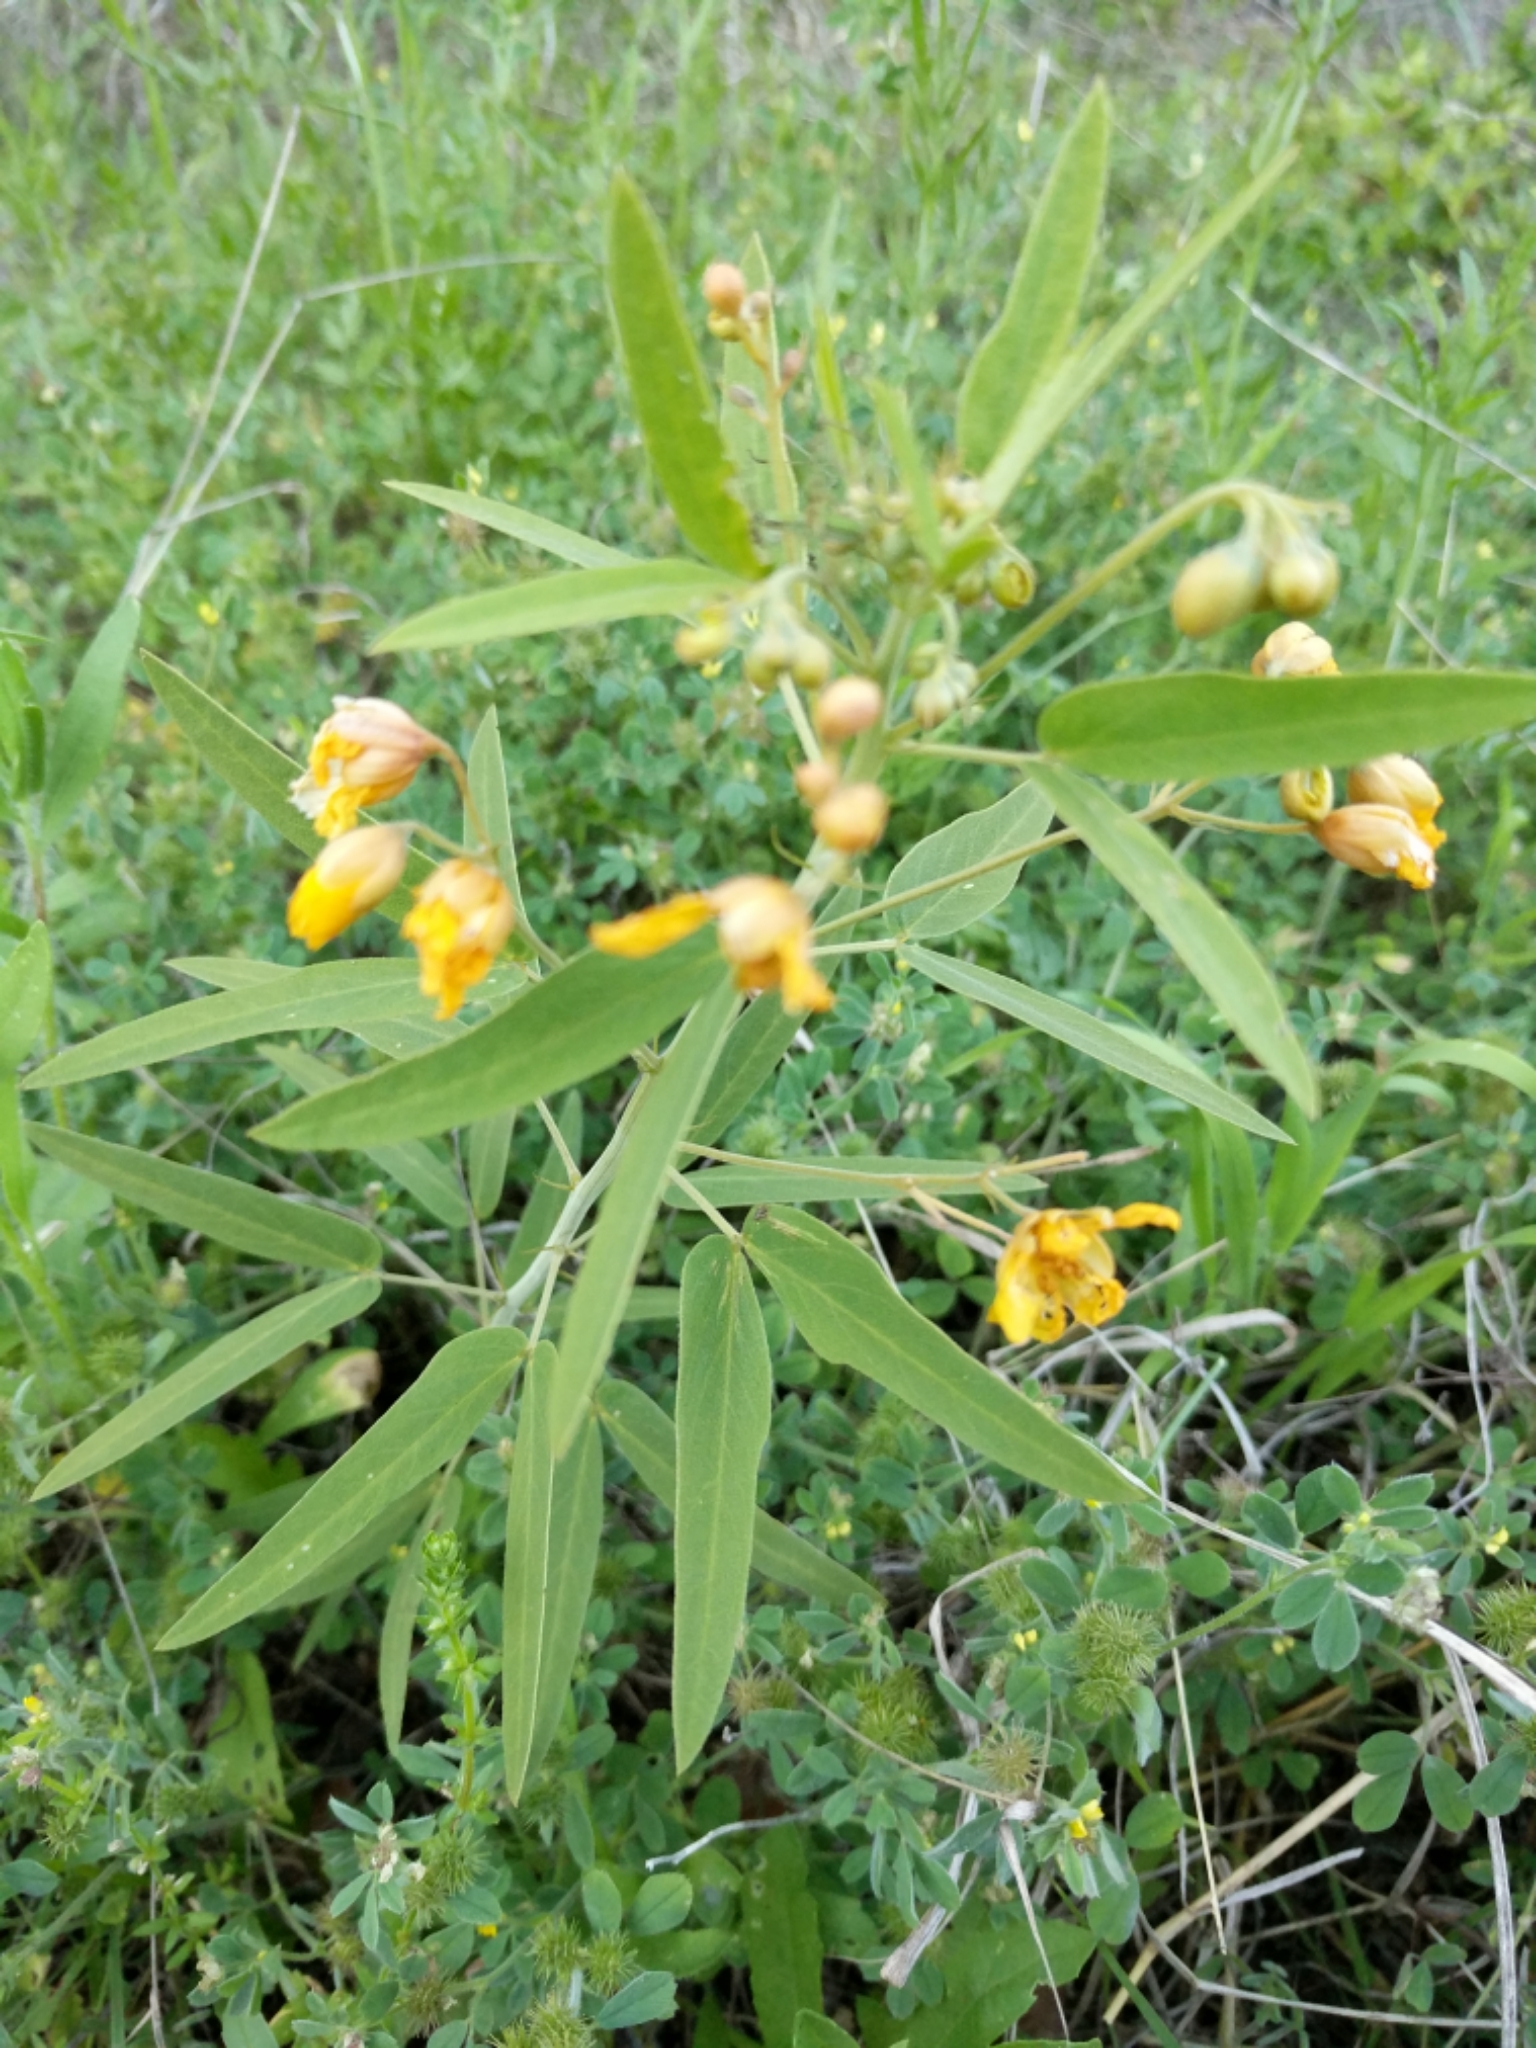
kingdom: Plantae
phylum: Tracheophyta
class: Magnoliopsida
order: Fabales
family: Fabaceae
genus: Senna
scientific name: Senna roemeriana
